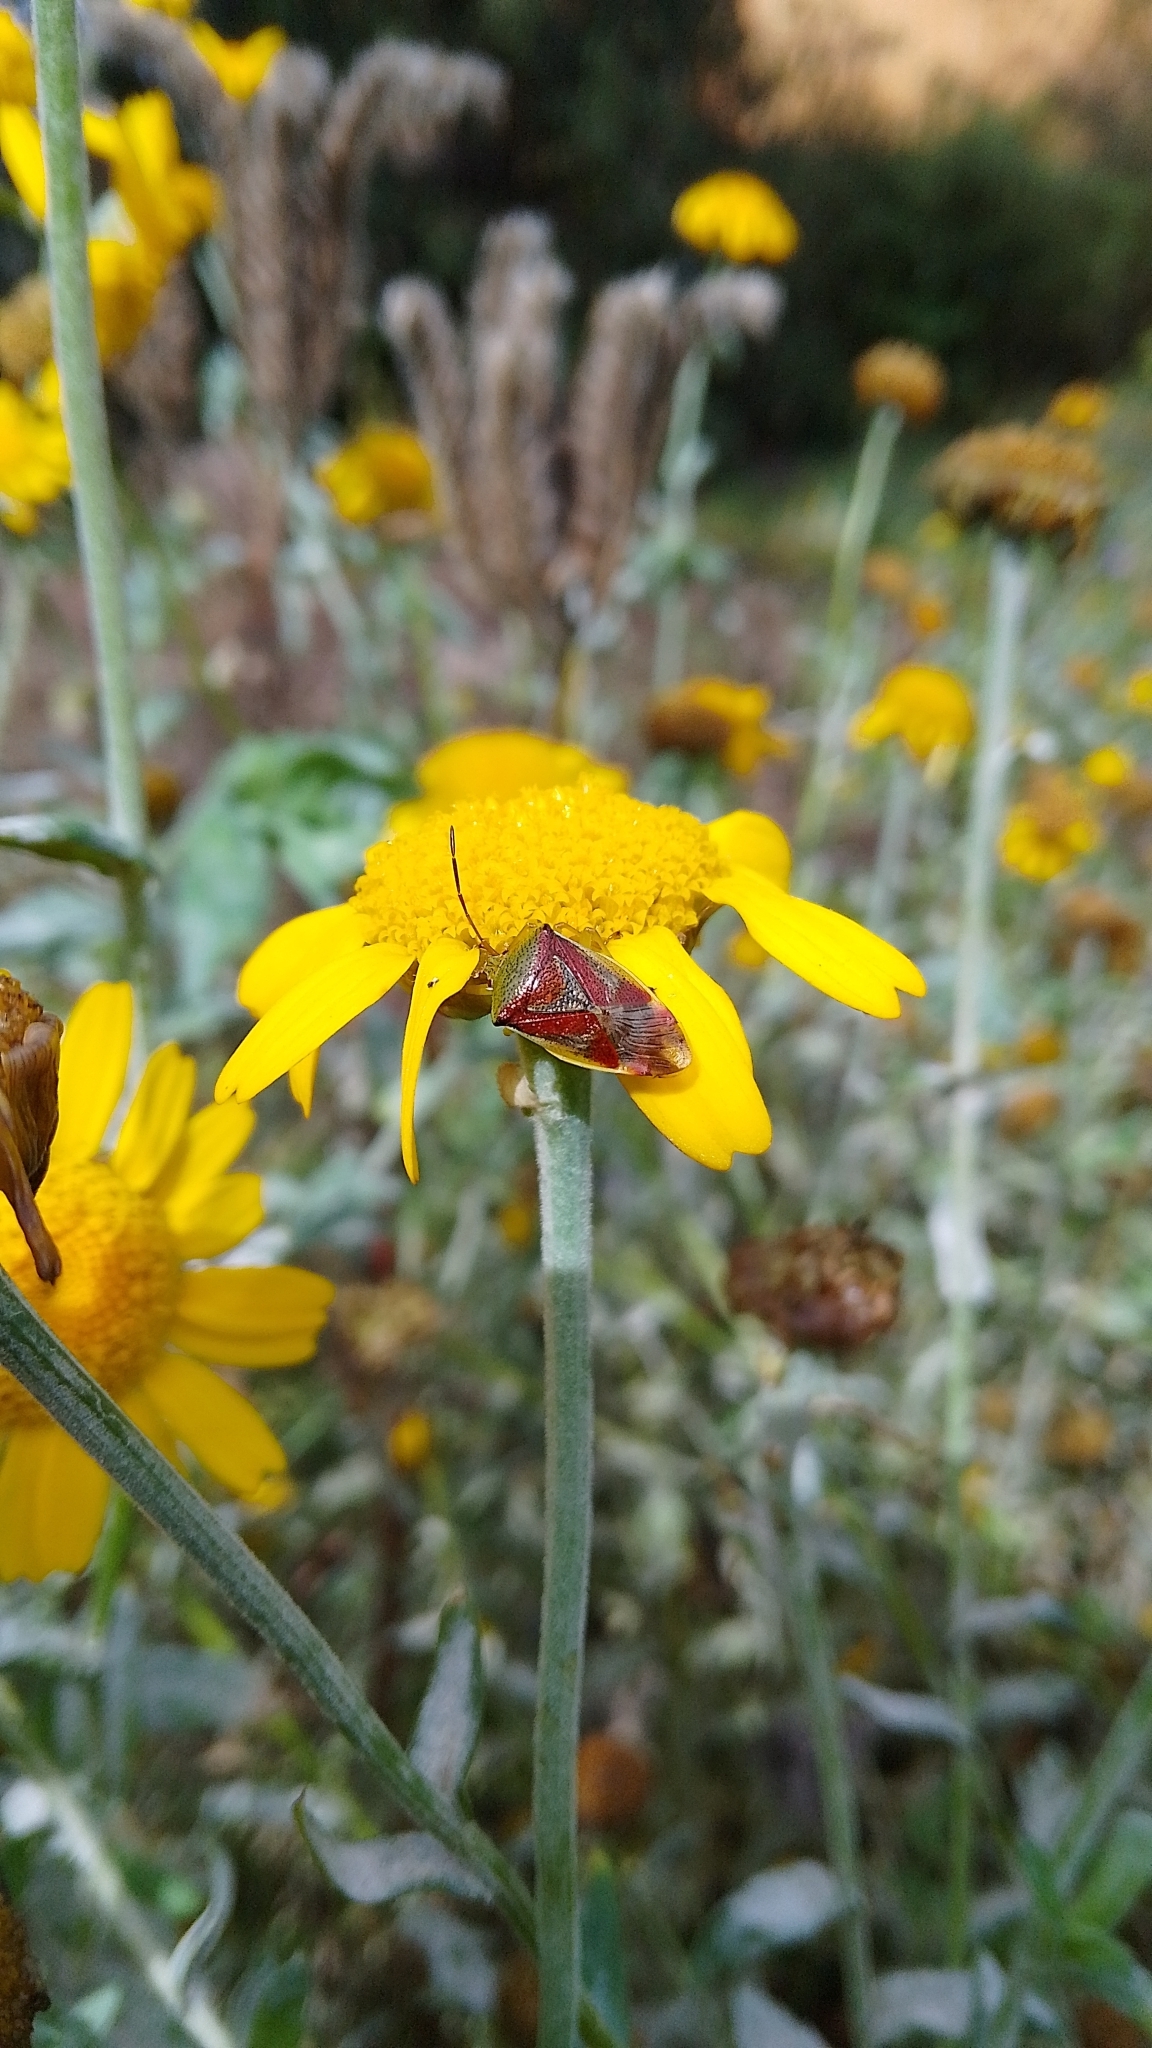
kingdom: Animalia
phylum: Arthropoda
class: Insecta
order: Hemiptera
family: Acanthosomatidae
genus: Elasmostethus
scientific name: Elasmostethus interstinctus
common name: Birch shieldbug
